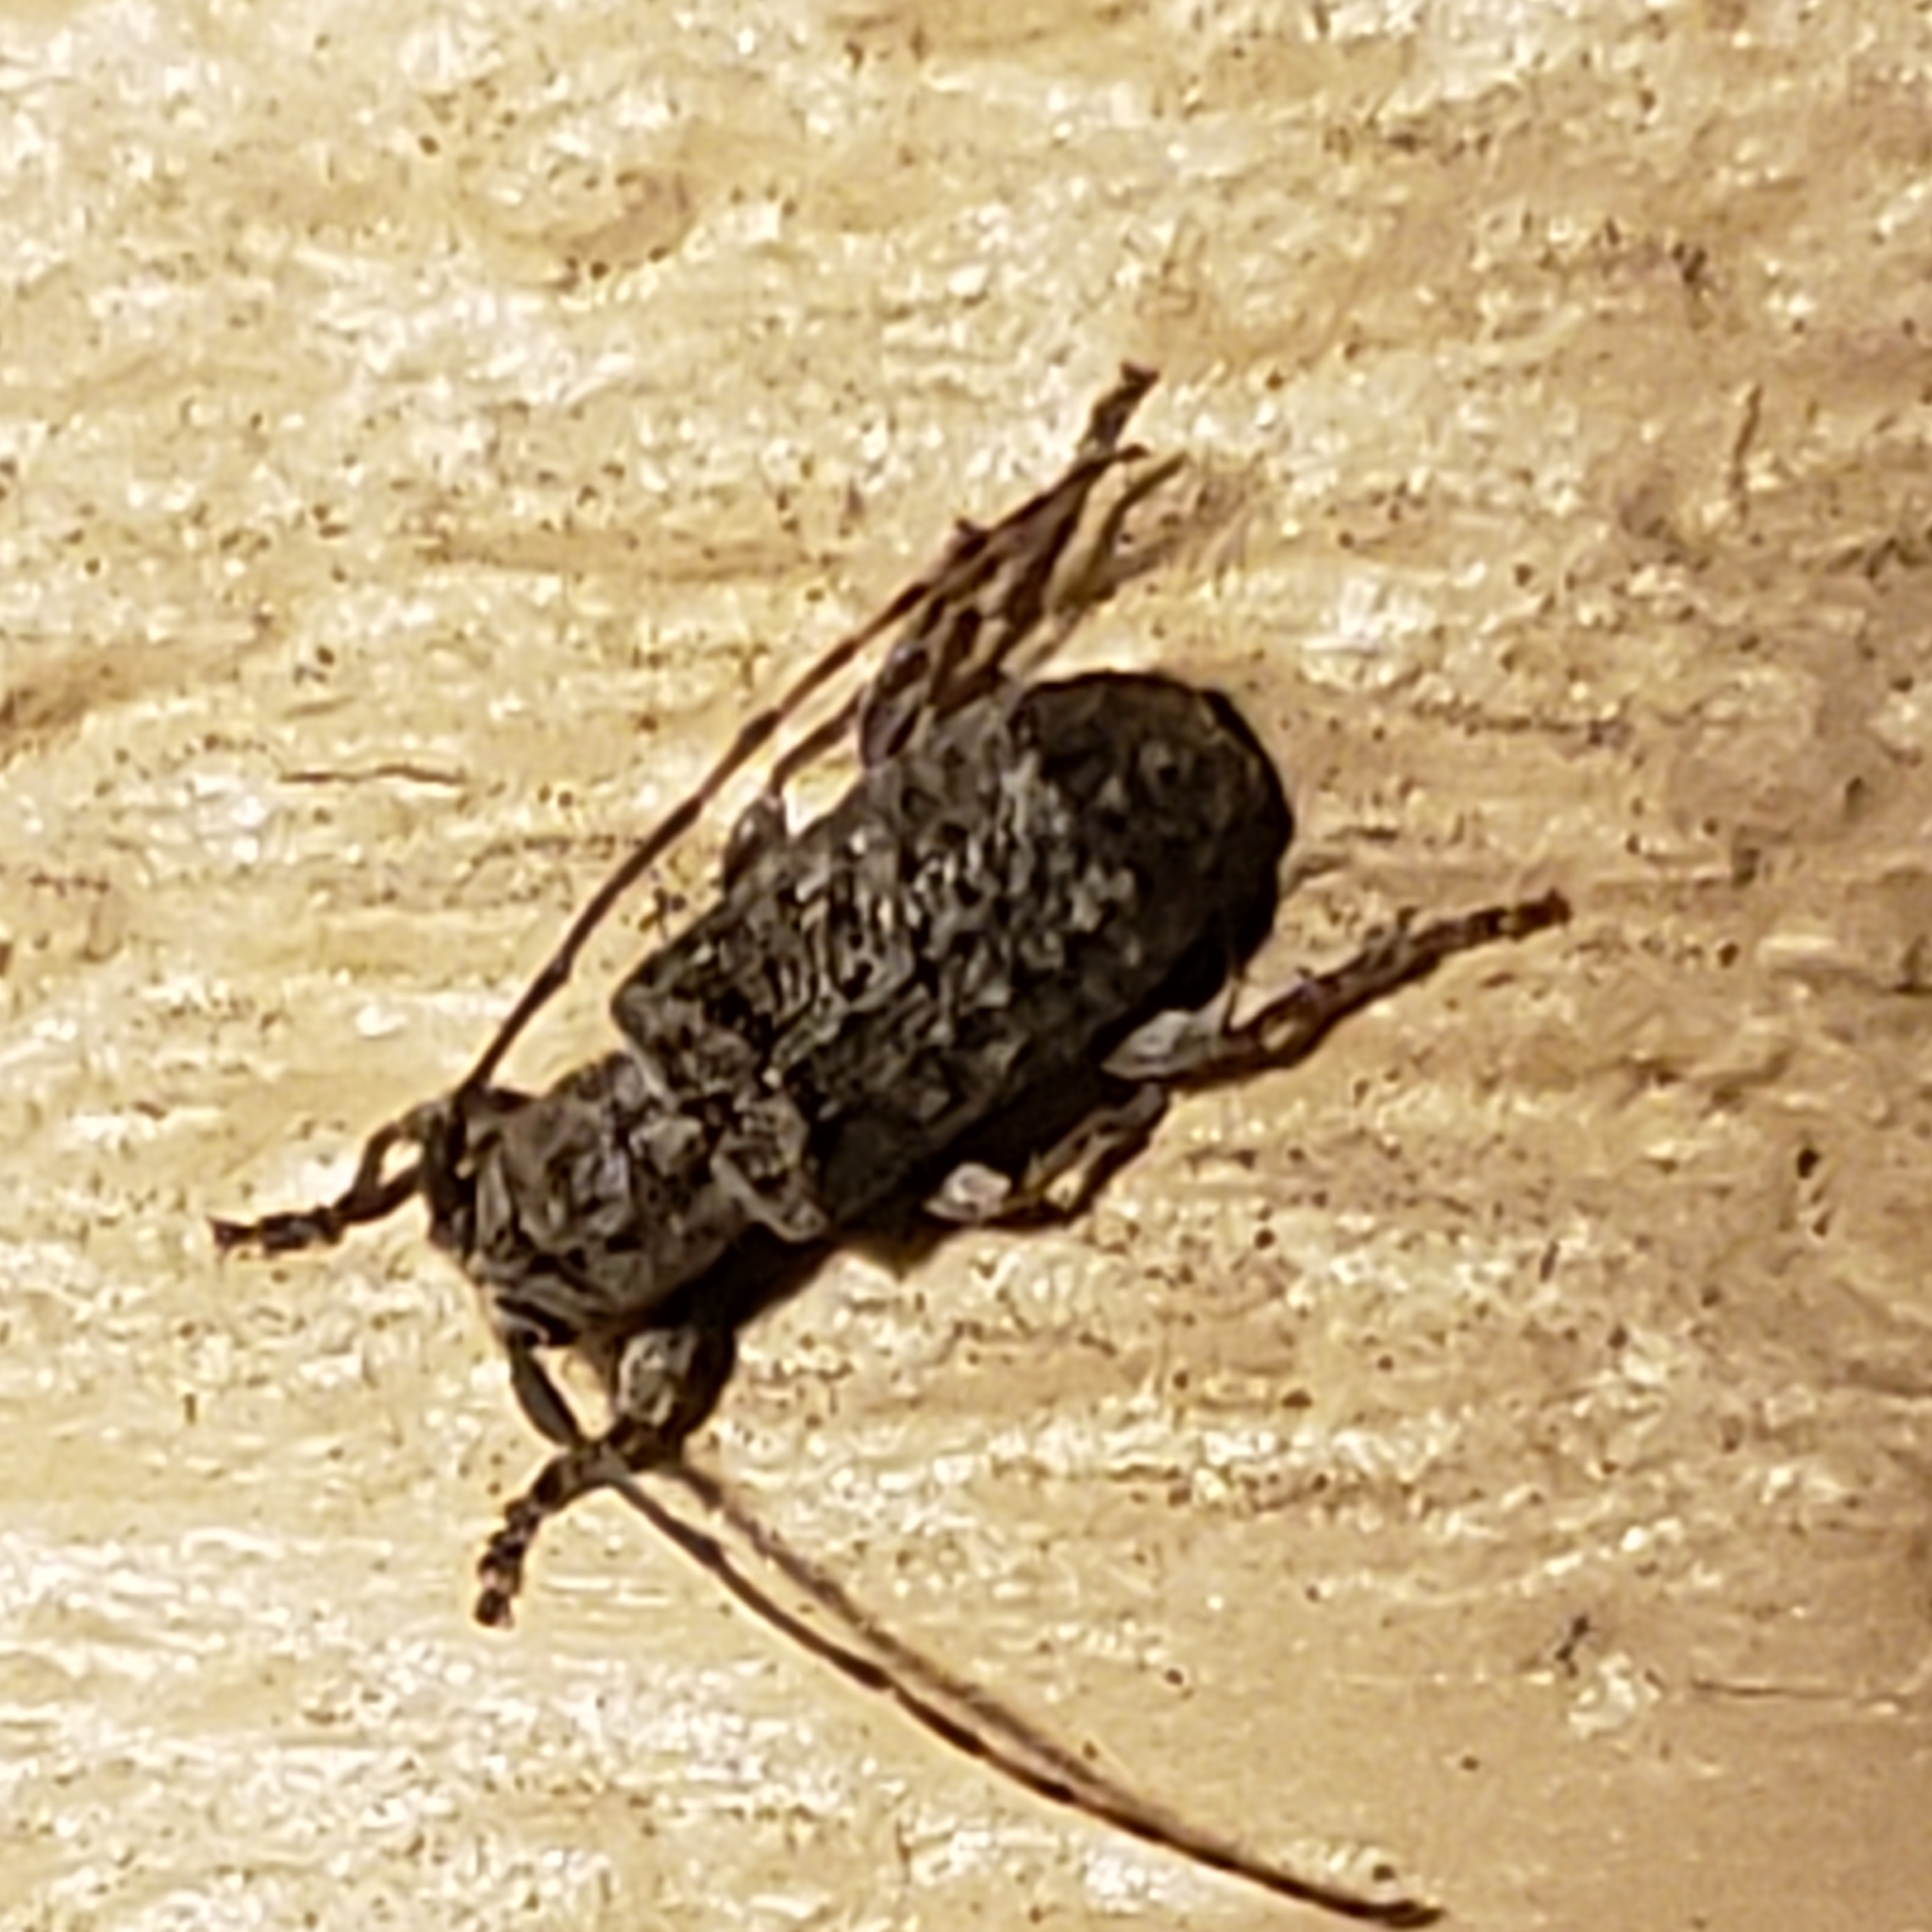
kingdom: Animalia
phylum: Arthropoda
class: Insecta
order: Coleoptera
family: Cerambycidae
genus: Ecyrus
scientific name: Ecyrus dasycerus
